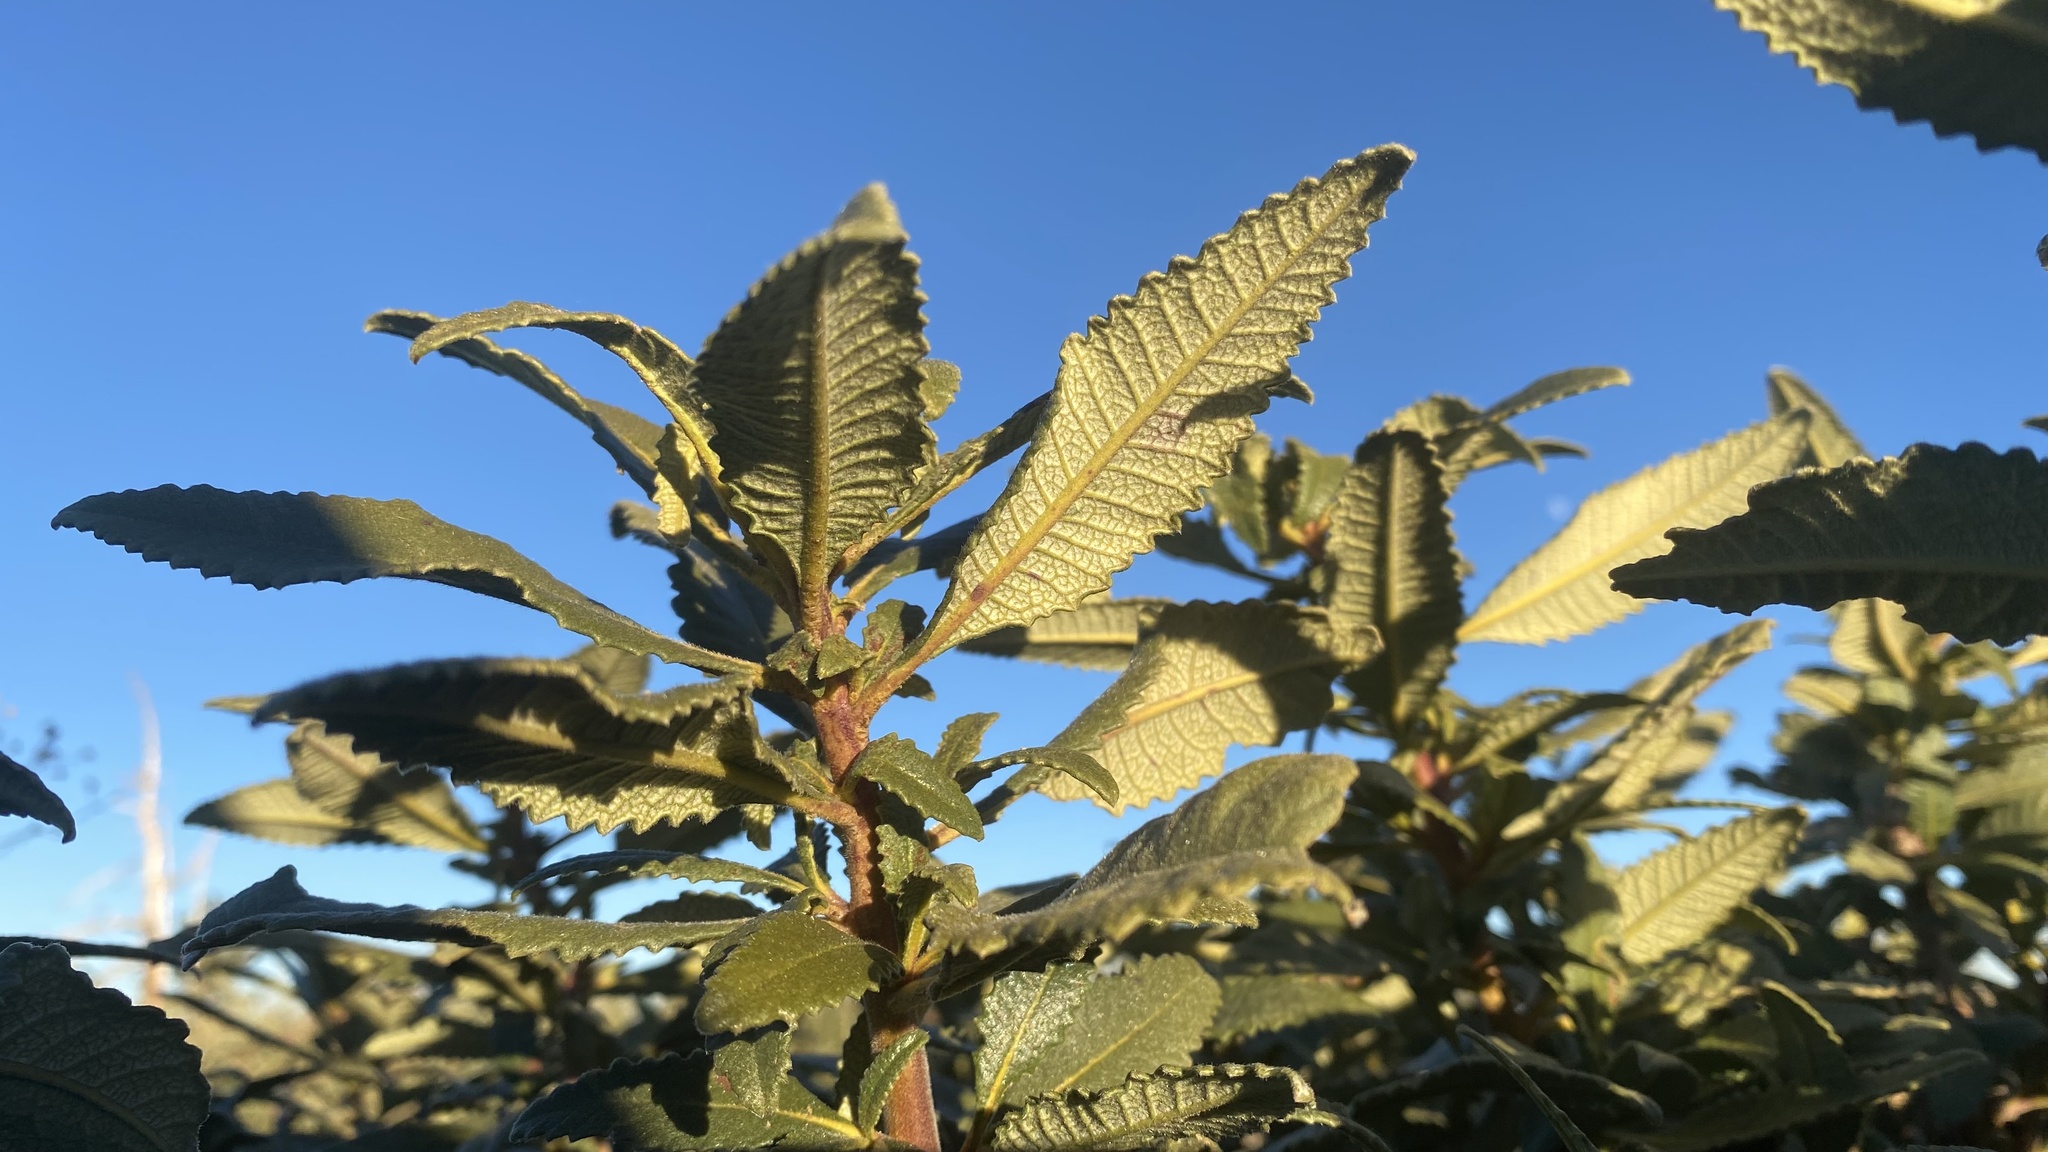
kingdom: Plantae
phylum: Tracheophyta
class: Magnoliopsida
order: Boraginales
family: Namaceae
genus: Eriodictyon
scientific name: Eriodictyon trichocalyx
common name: Hairy yerba-santa
